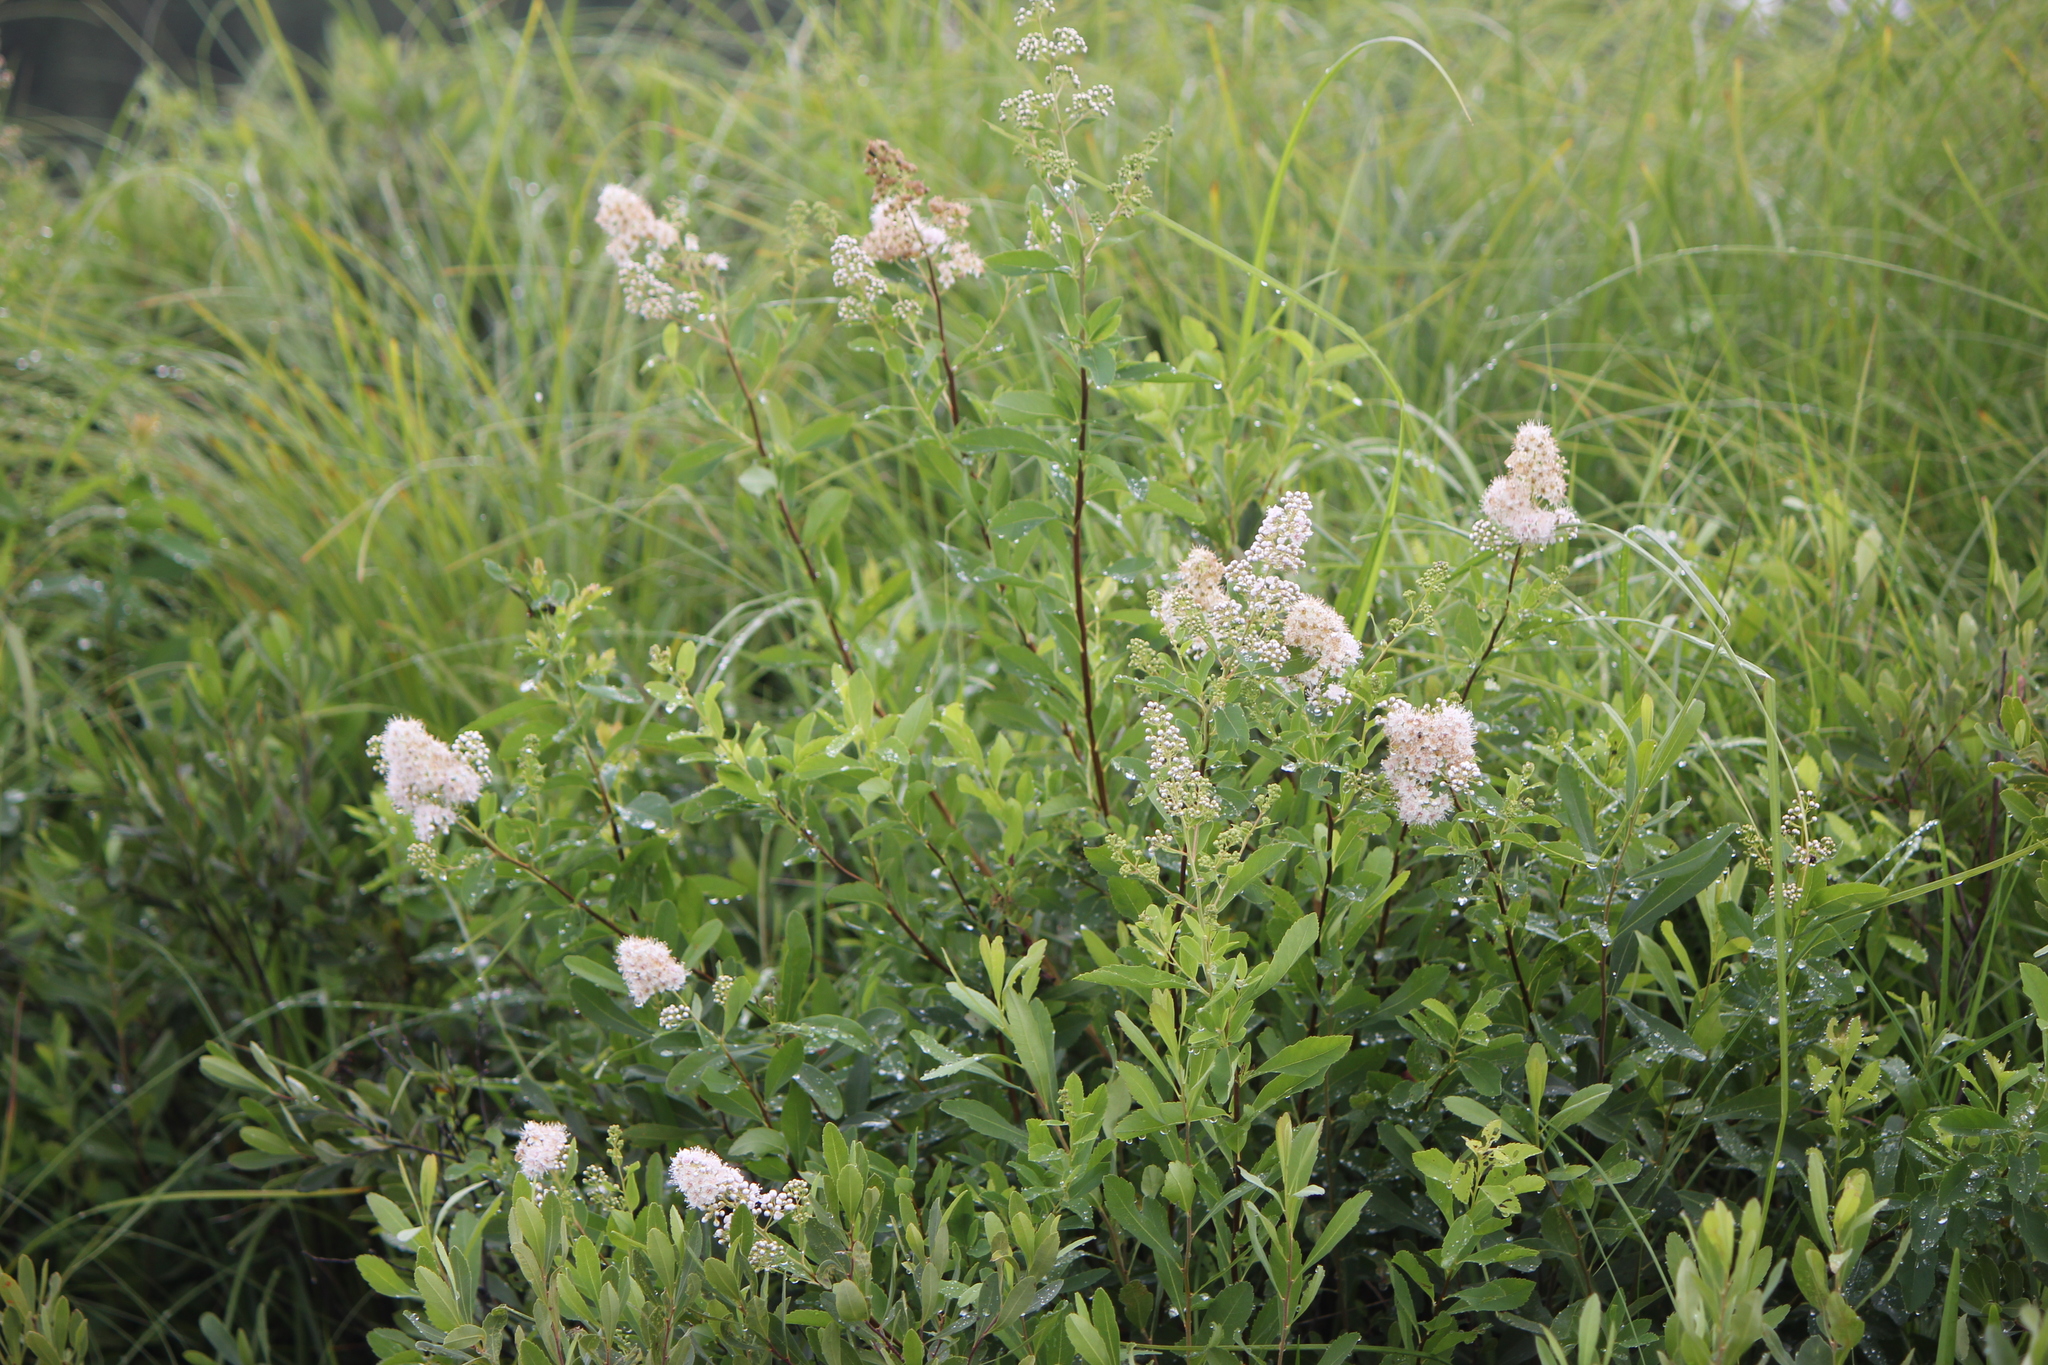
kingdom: Plantae
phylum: Tracheophyta
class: Magnoliopsida
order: Rosales
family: Rosaceae
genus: Spiraea
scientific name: Spiraea alba
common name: Pale bridewort
